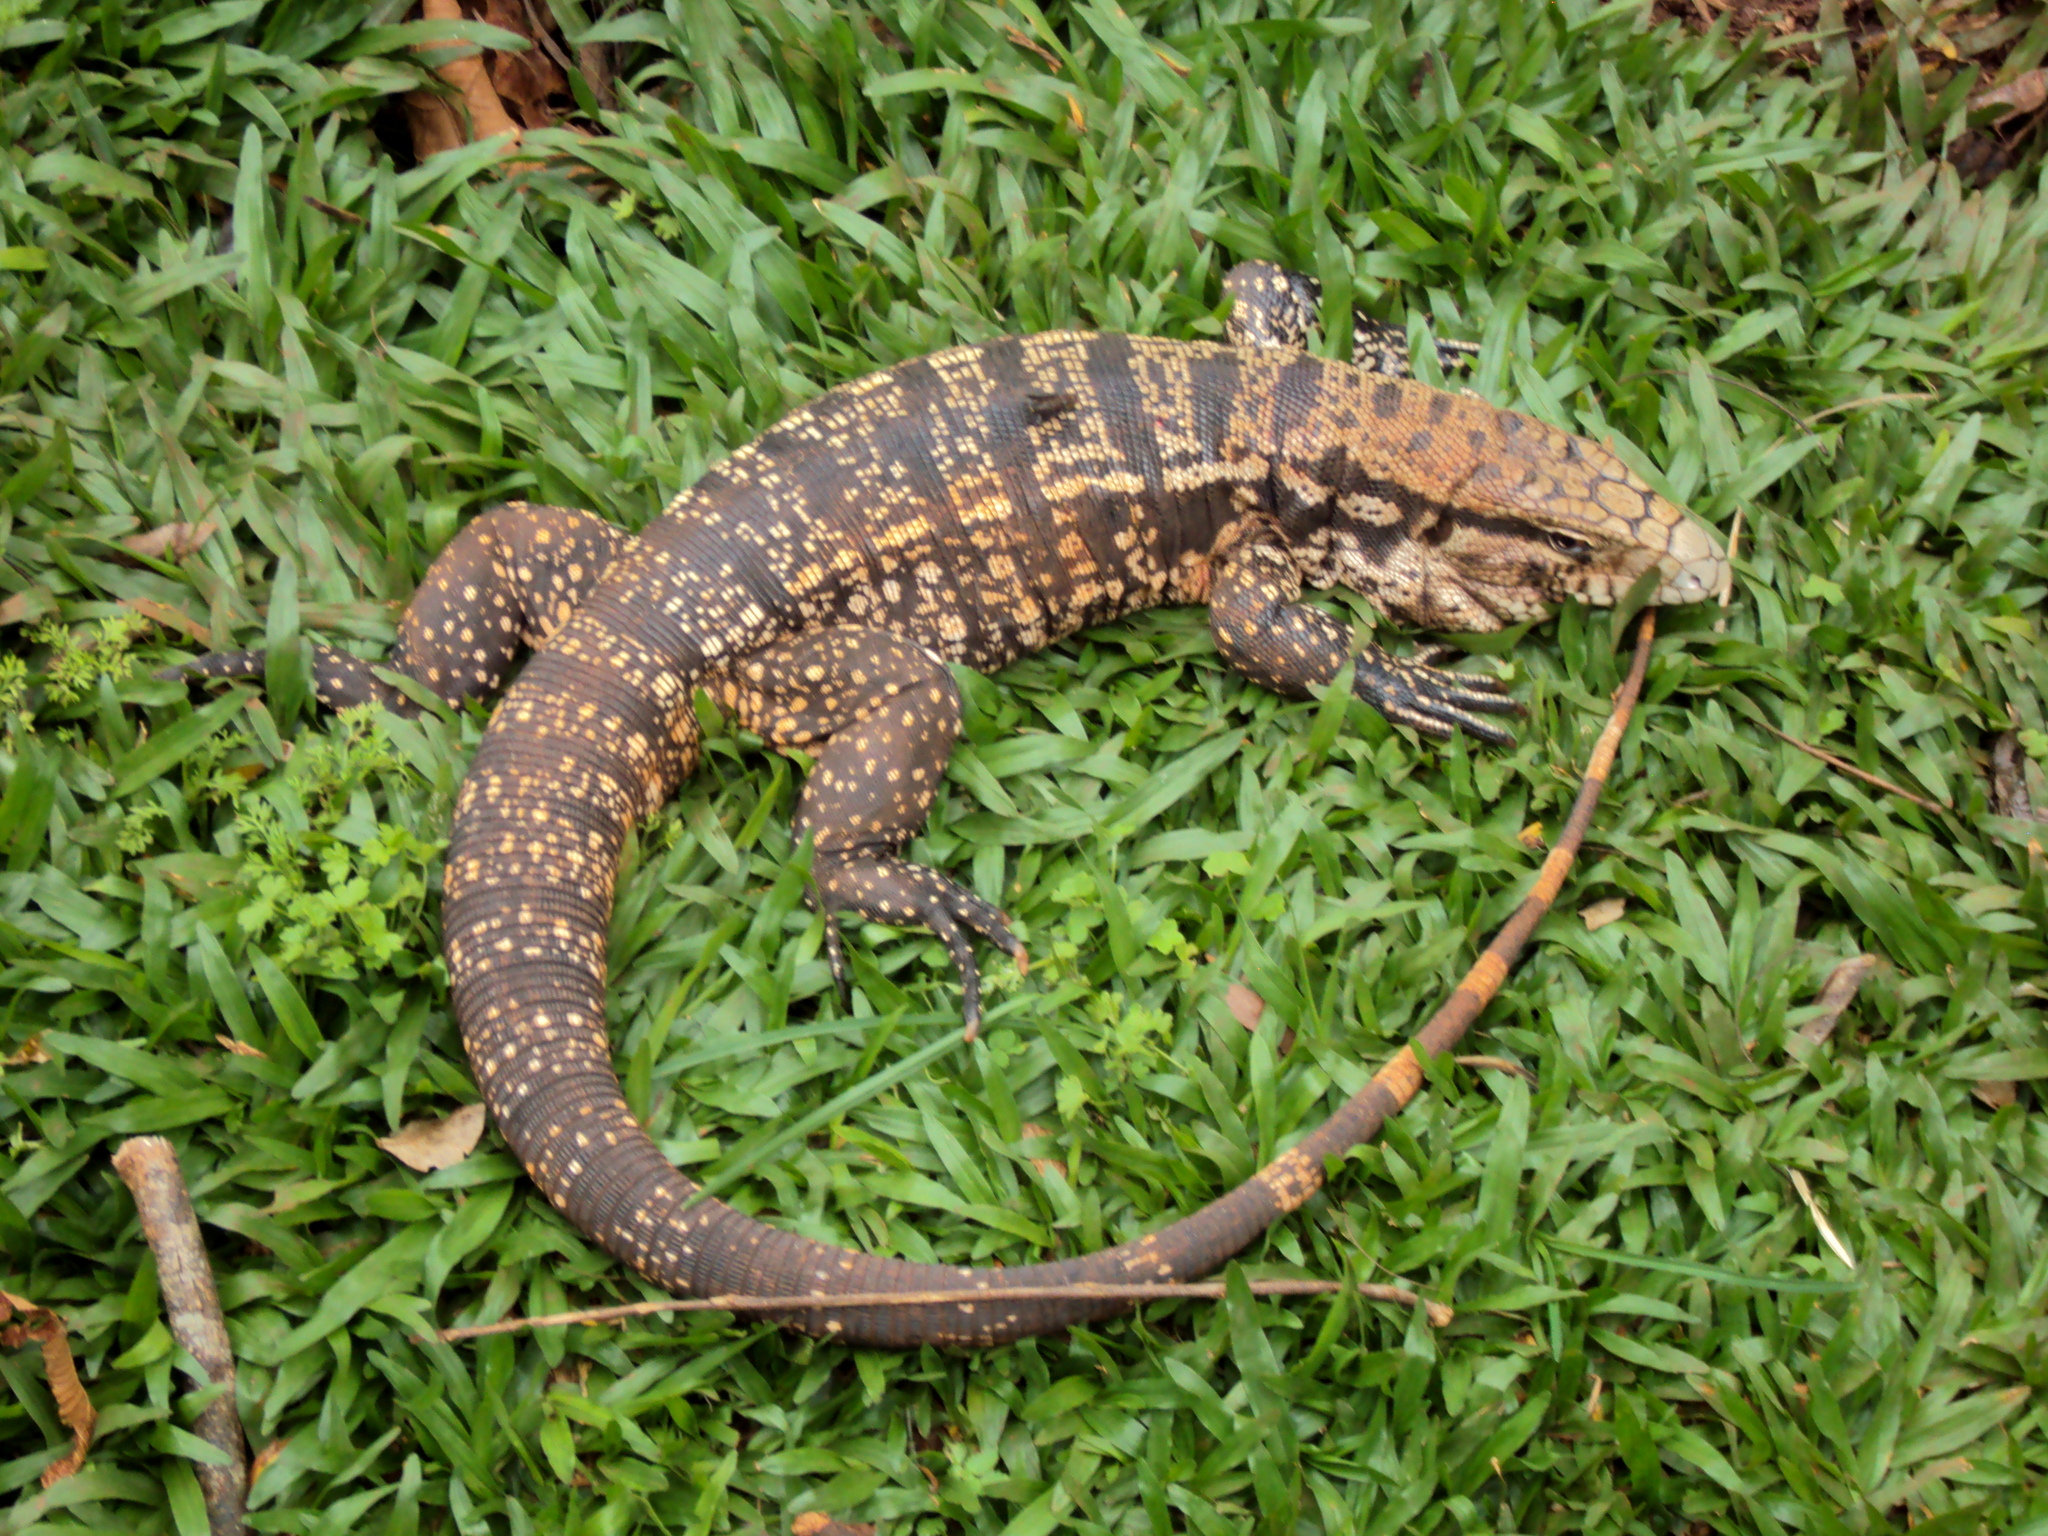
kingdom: Animalia
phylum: Chordata
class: Squamata
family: Teiidae
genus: Salvator
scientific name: Salvator merianae
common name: Argentine black and white tegu
